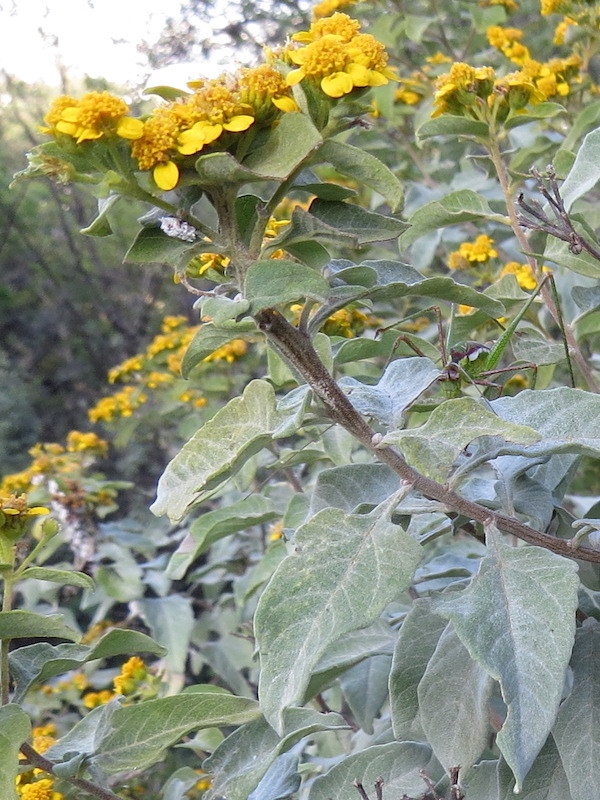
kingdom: Plantae
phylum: Tracheophyta
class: Magnoliopsida
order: Asterales
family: Asteraceae
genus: Zaluzania
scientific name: Zaluzania augusta
